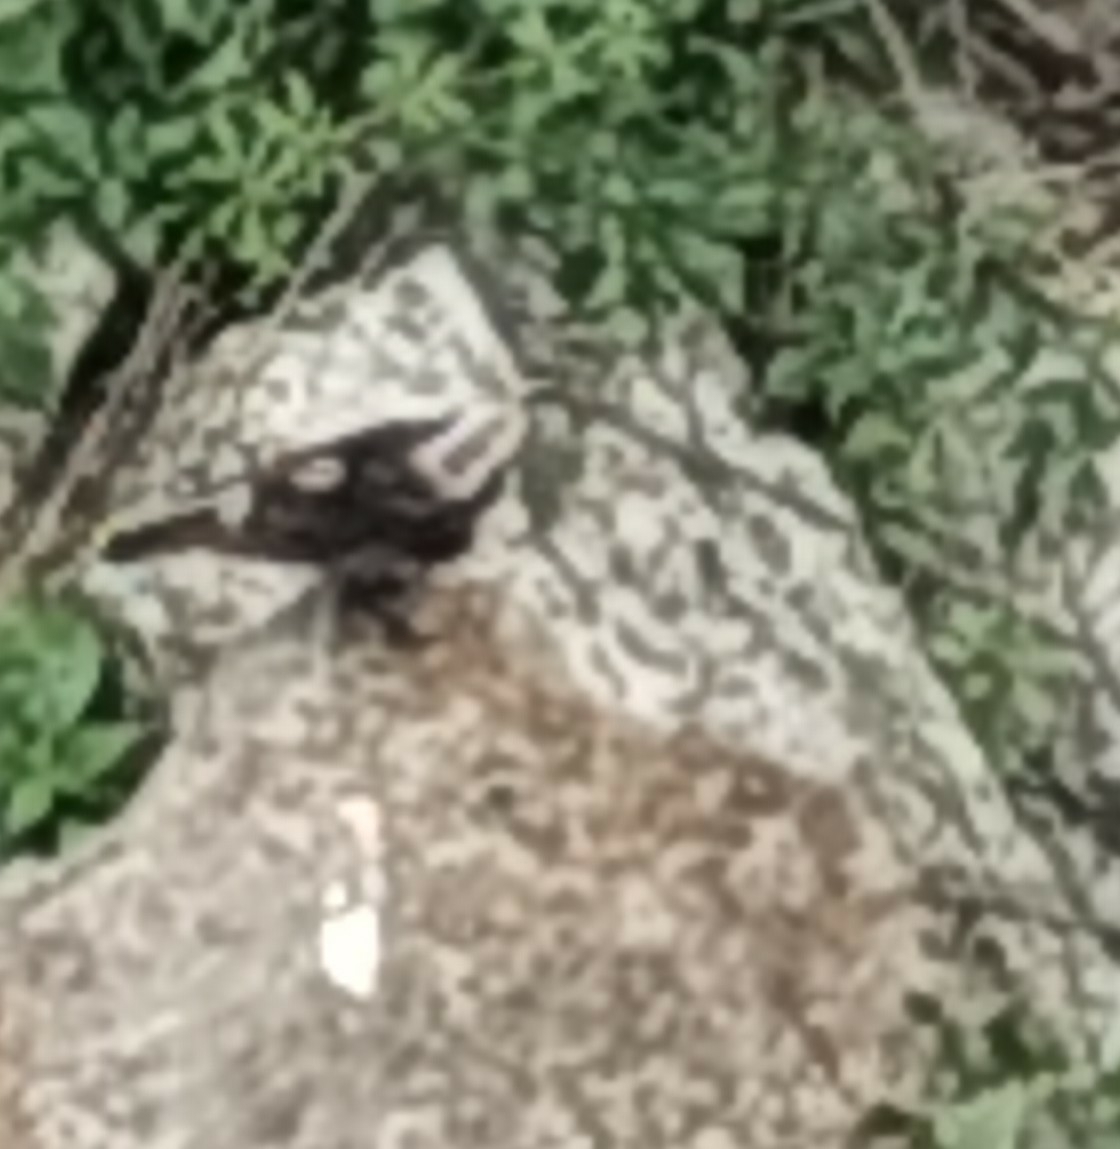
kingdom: Animalia
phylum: Chordata
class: Aves
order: Passeriformes
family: Muscicapidae
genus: Oenanthe
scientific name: Oenanthe pleschanka
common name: Pied wheatear
